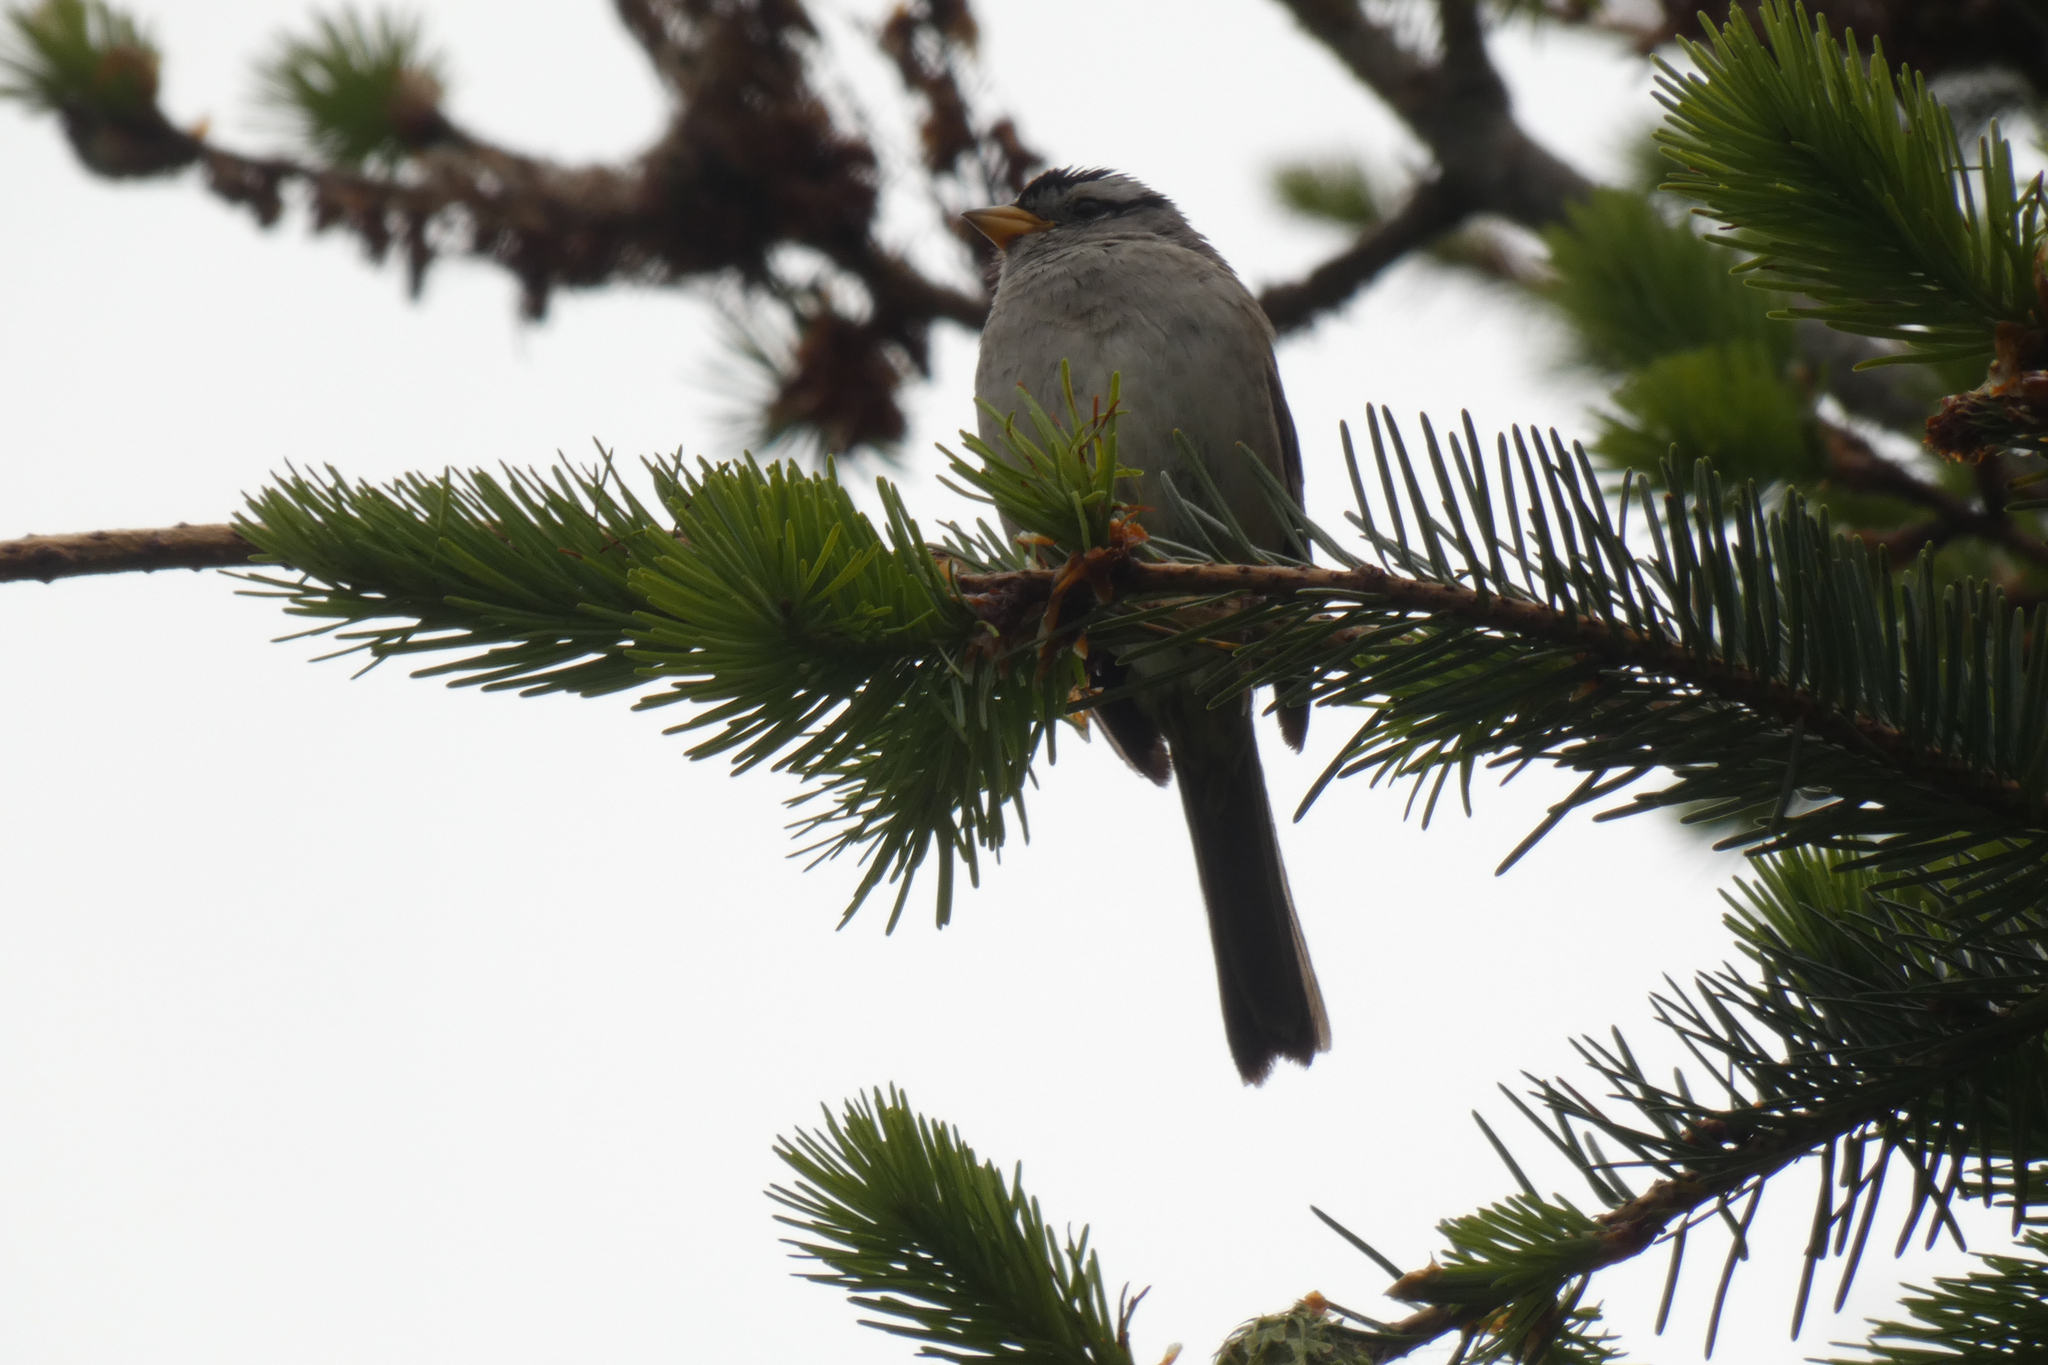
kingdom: Animalia
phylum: Chordata
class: Aves
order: Passeriformes
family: Passerellidae
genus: Zonotrichia
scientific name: Zonotrichia leucophrys
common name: White-crowned sparrow
